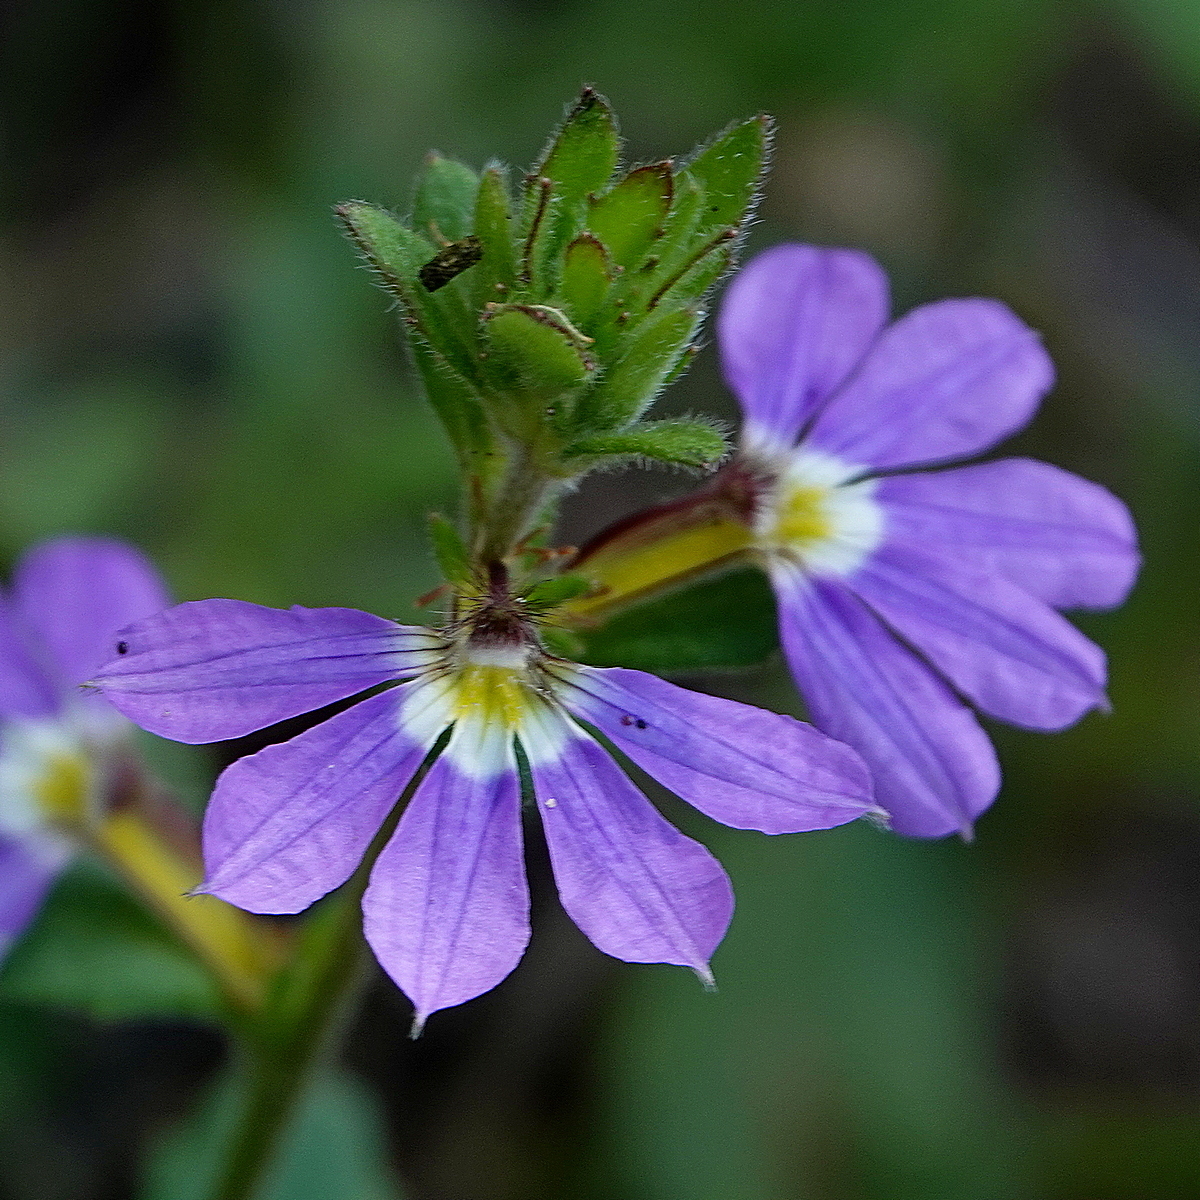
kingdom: Plantae
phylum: Tracheophyta
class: Magnoliopsida
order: Asterales
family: Goodeniaceae
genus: Scaevola
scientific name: Scaevola aemula
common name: Common fanflower
